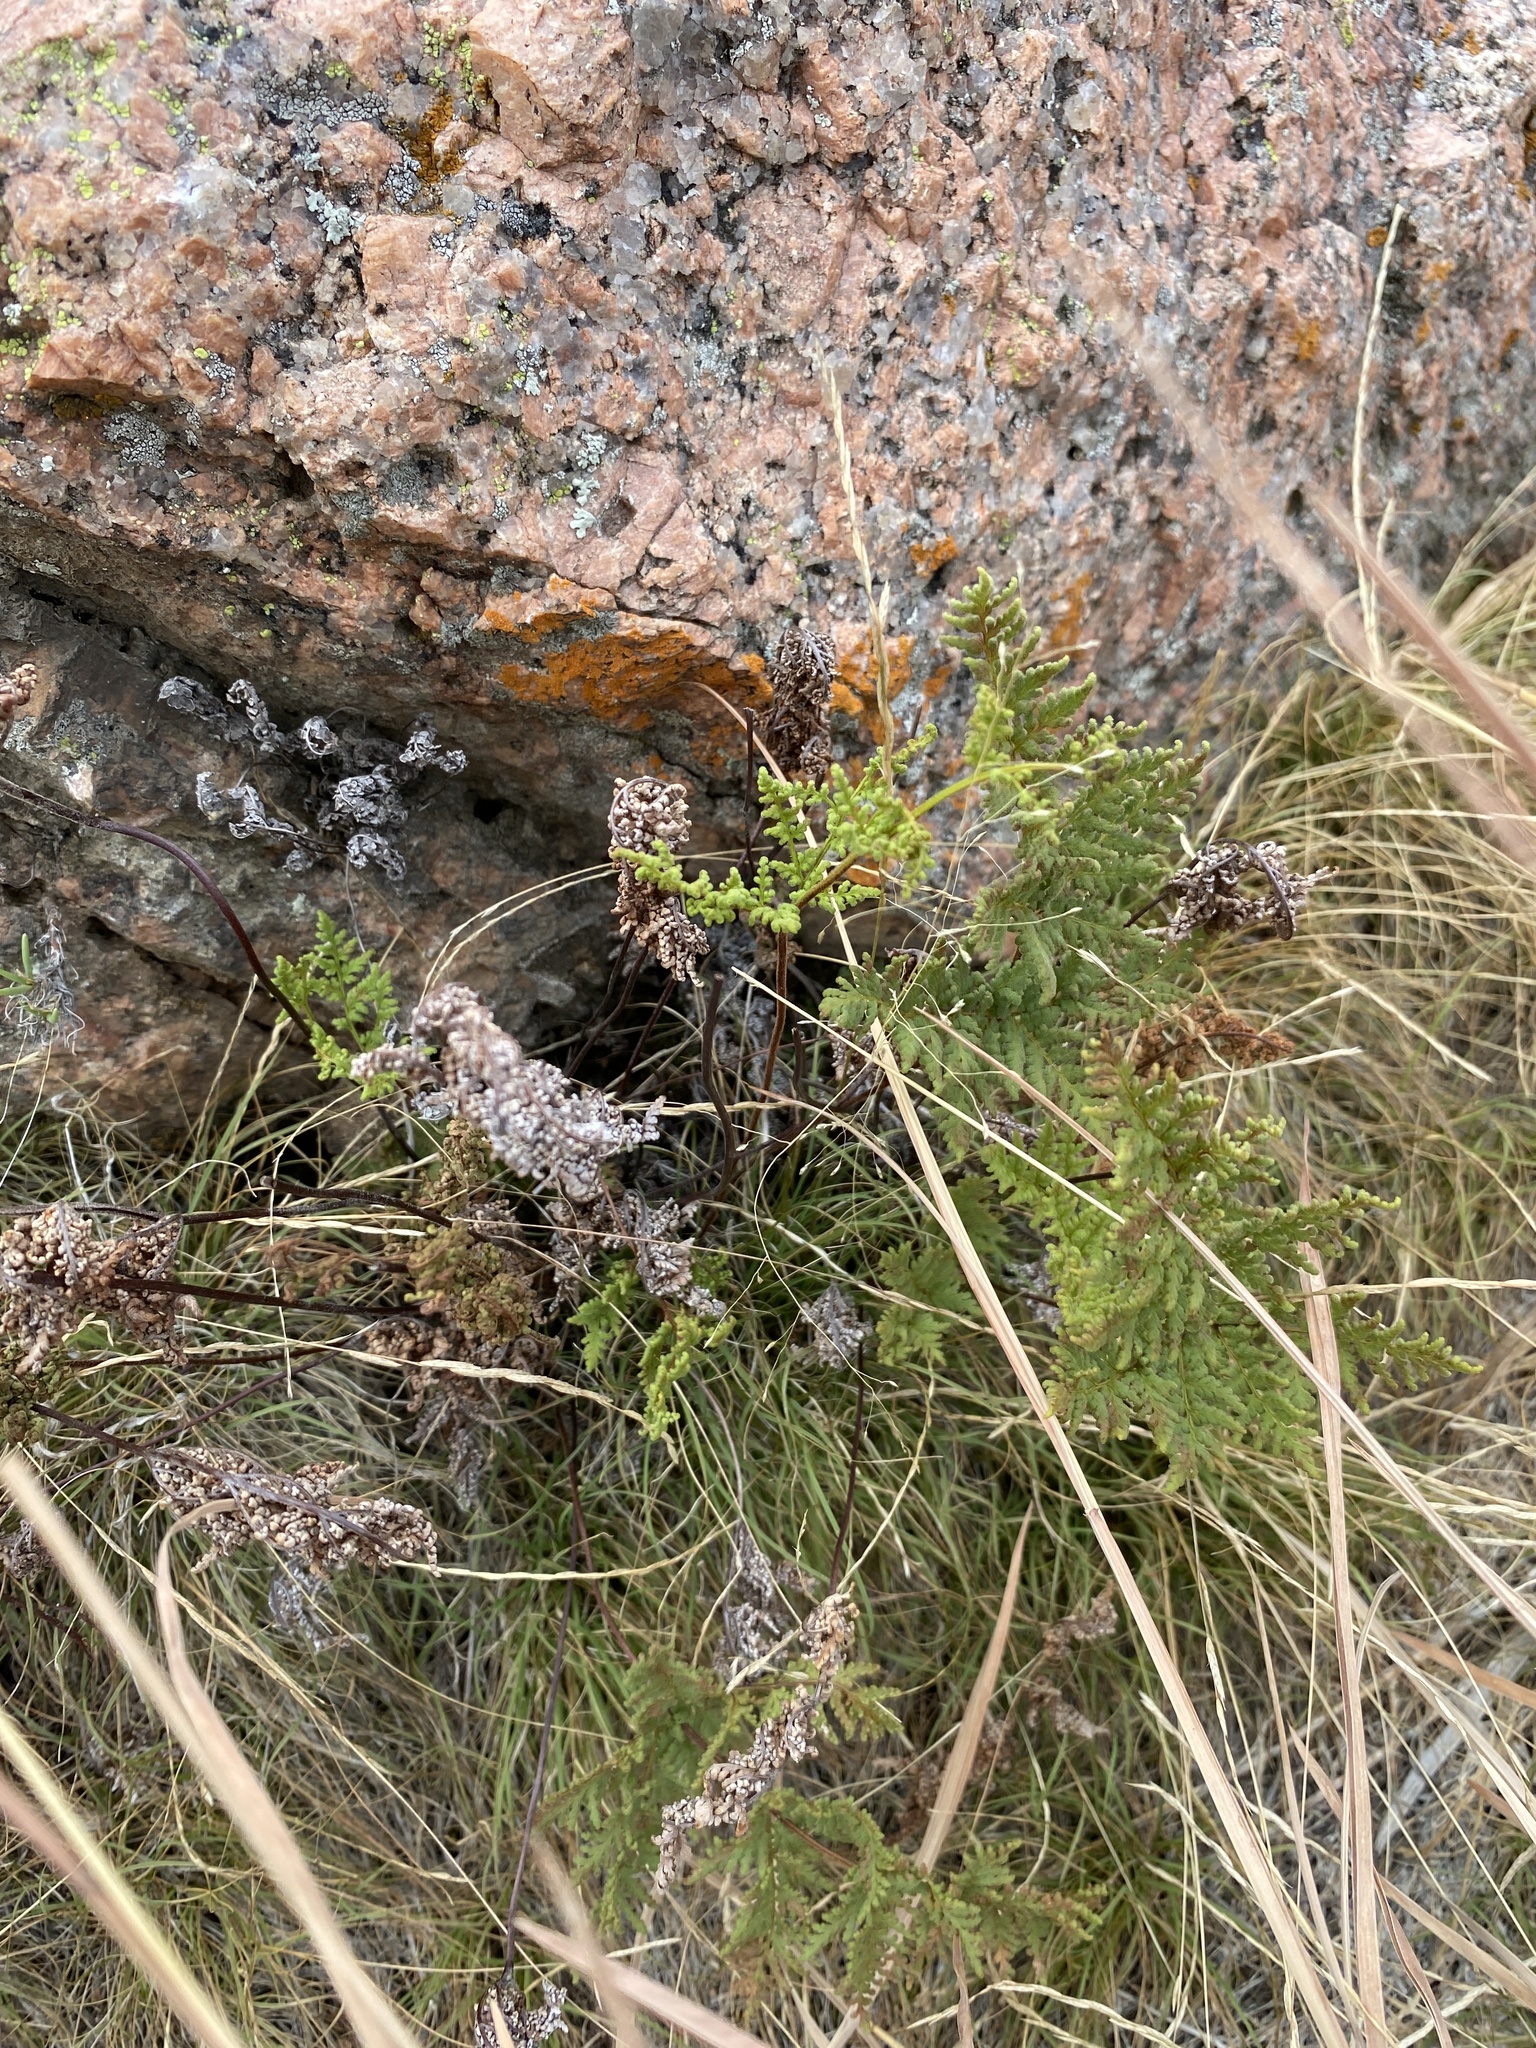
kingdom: Plantae
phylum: Tracheophyta
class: Polypodiopsida
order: Polypodiales
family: Pteridaceae
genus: Gaga
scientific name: Gaga kaulfussii
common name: Glandular lip fern
